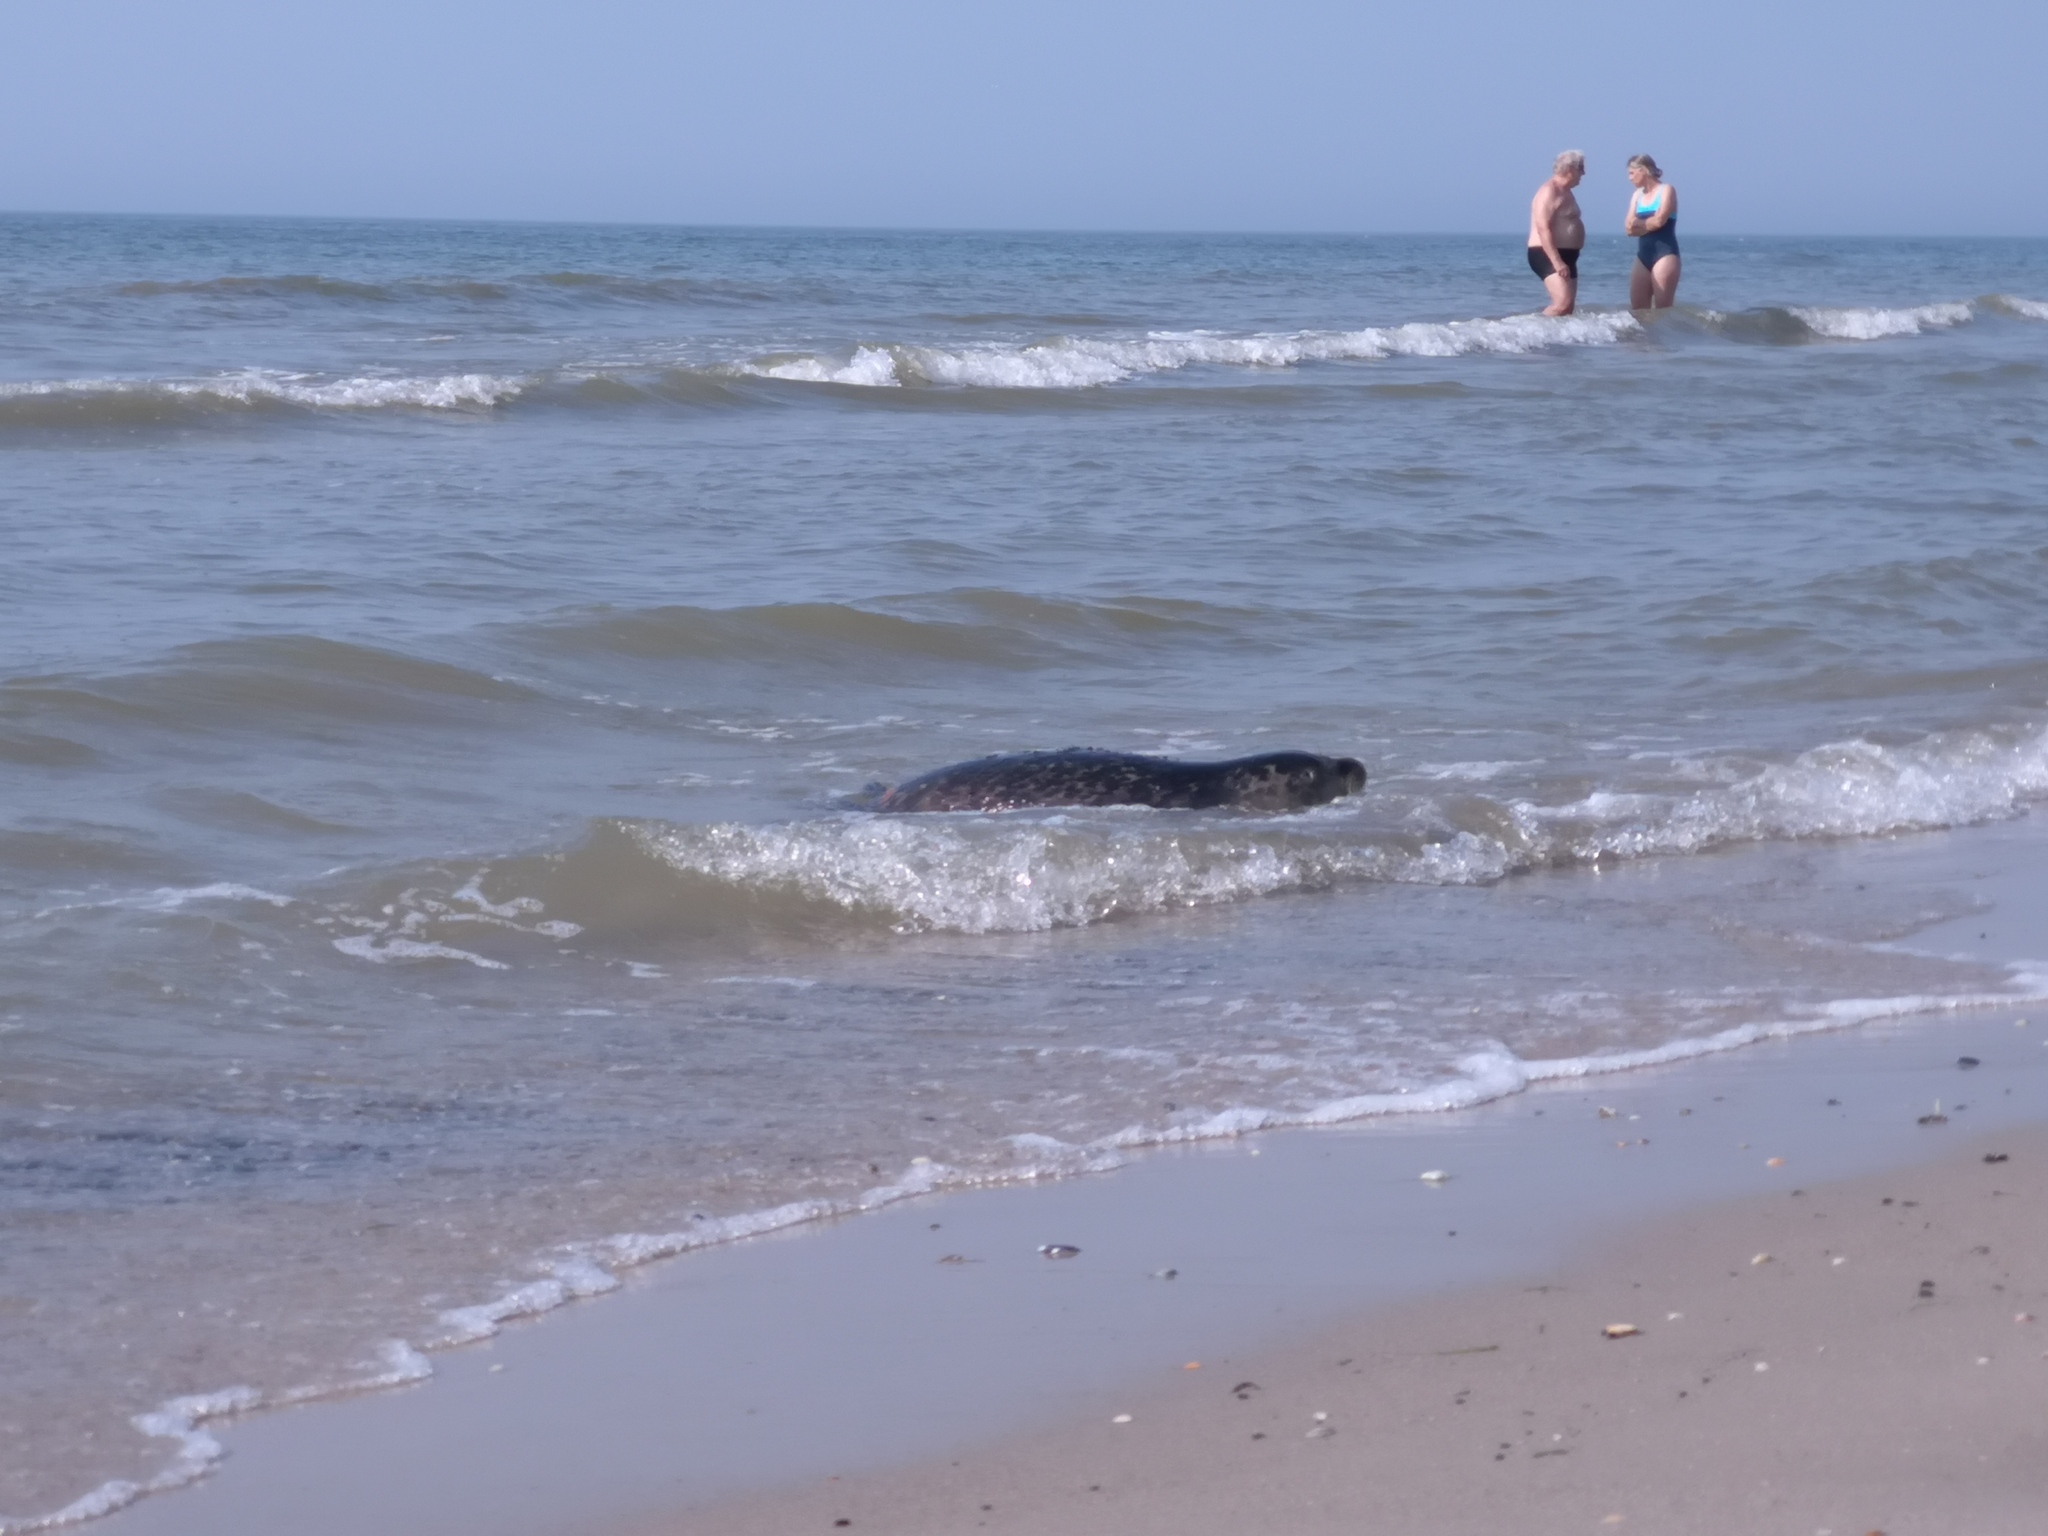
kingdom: Animalia
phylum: Chordata
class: Mammalia
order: Carnivora
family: Phocidae
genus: Phoca
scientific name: Phoca vitulina
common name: Harbor seal
